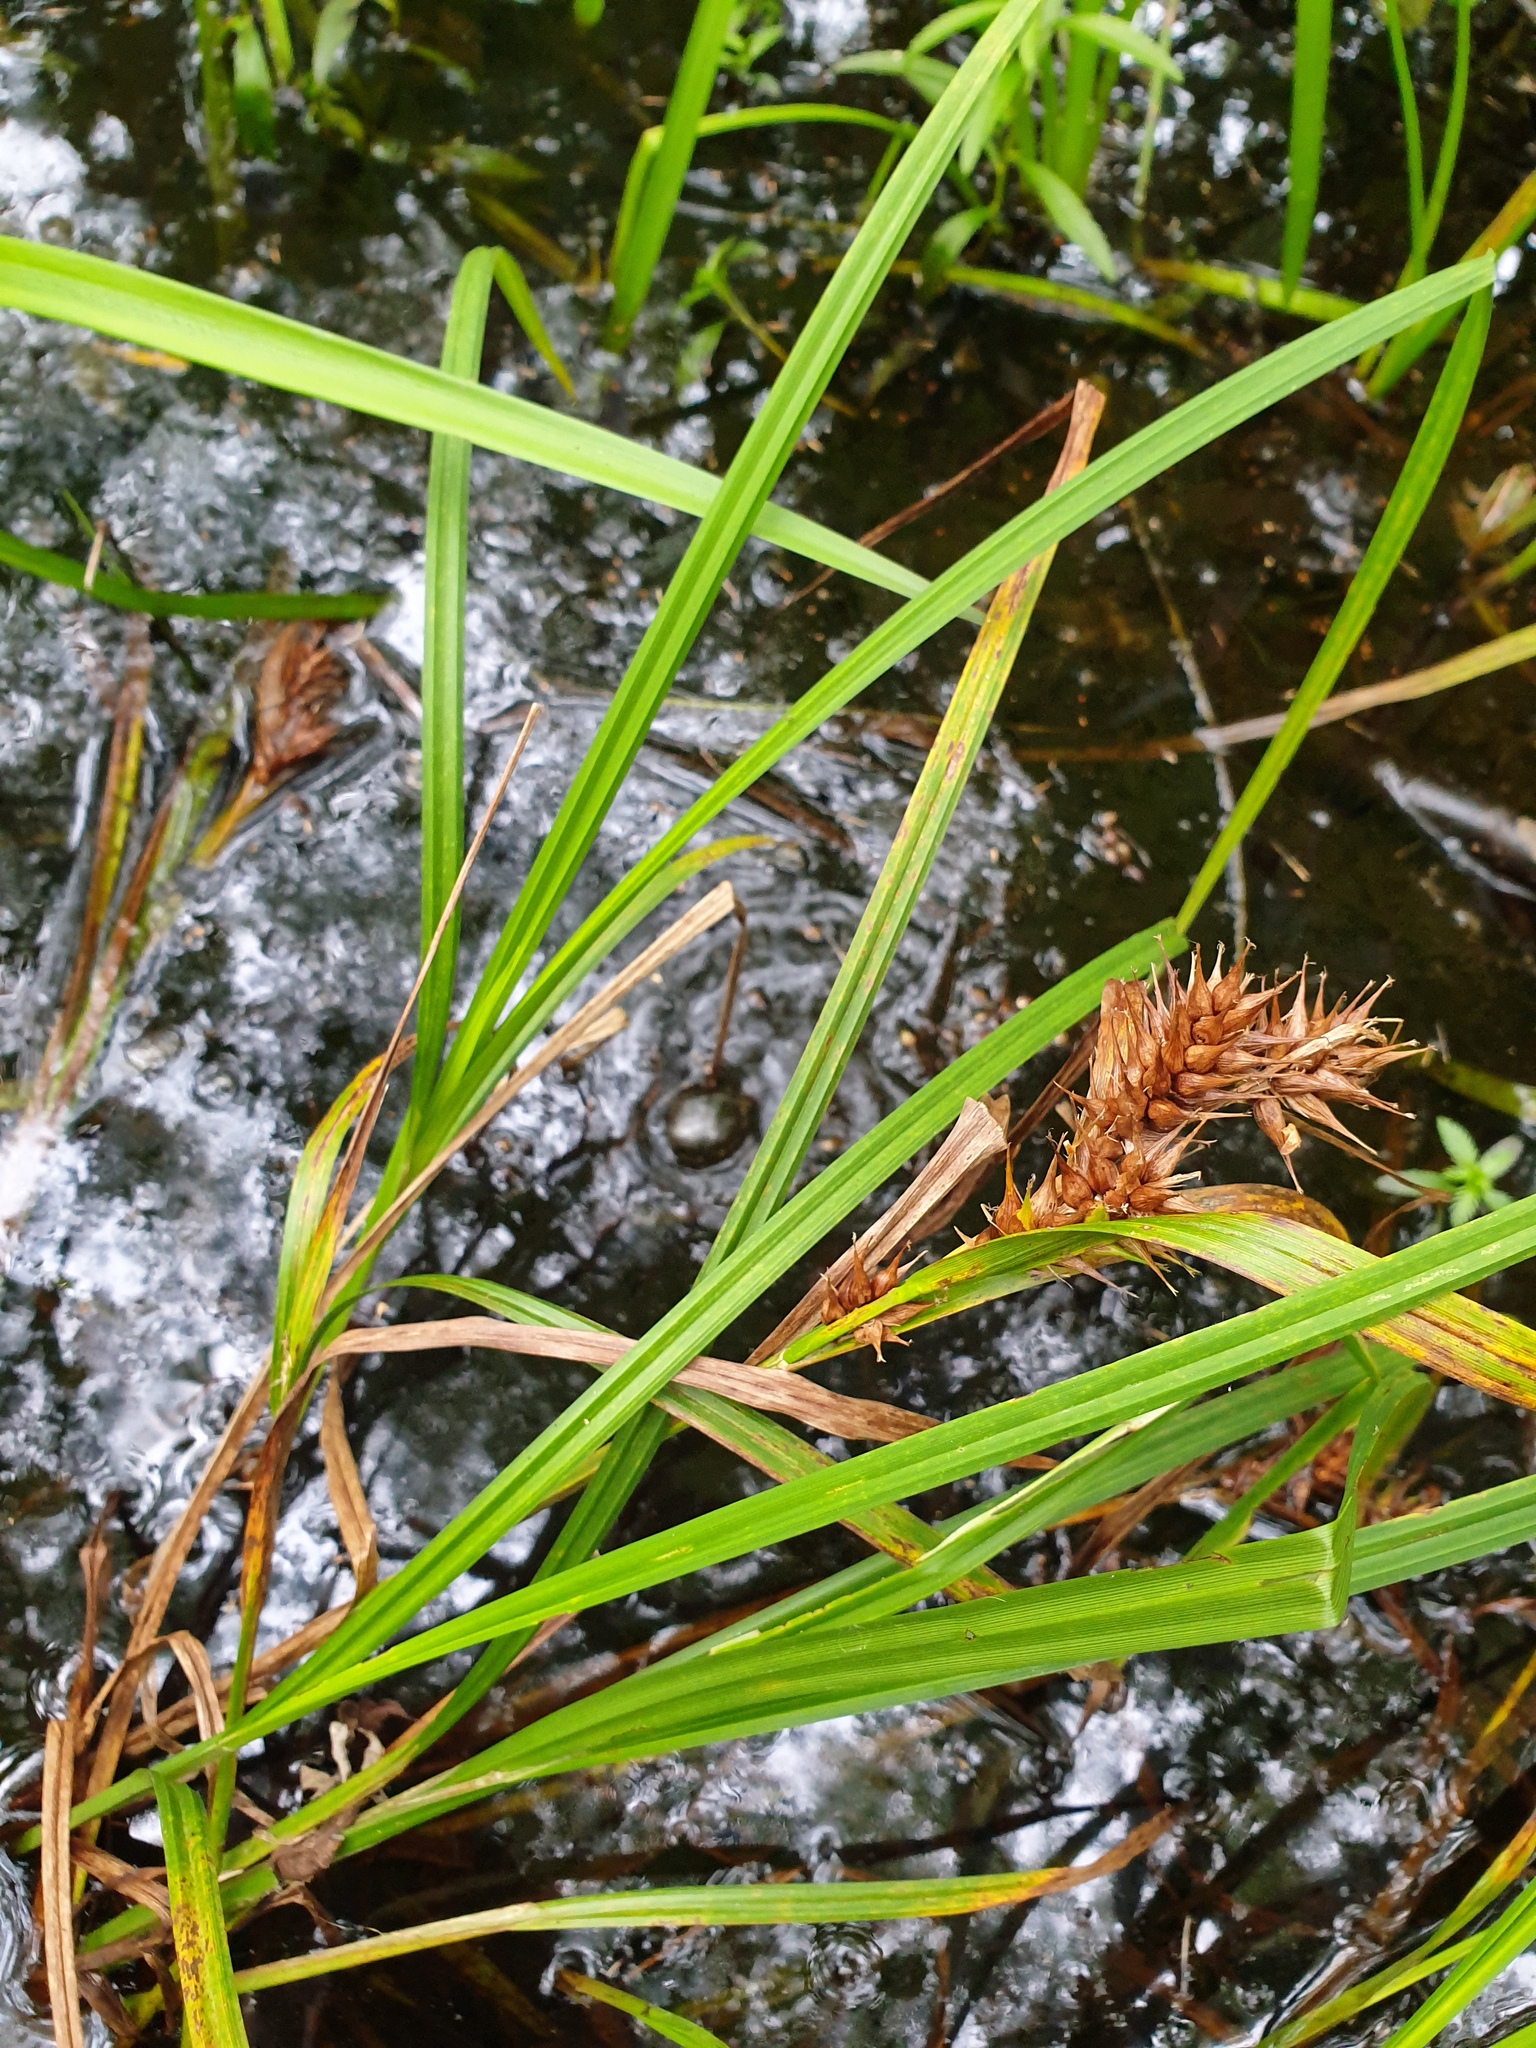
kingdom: Plantae
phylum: Tracheophyta
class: Liliopsida
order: Poales
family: Cyperaceae
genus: Carex
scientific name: Carex lupulina
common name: Hop sedge
